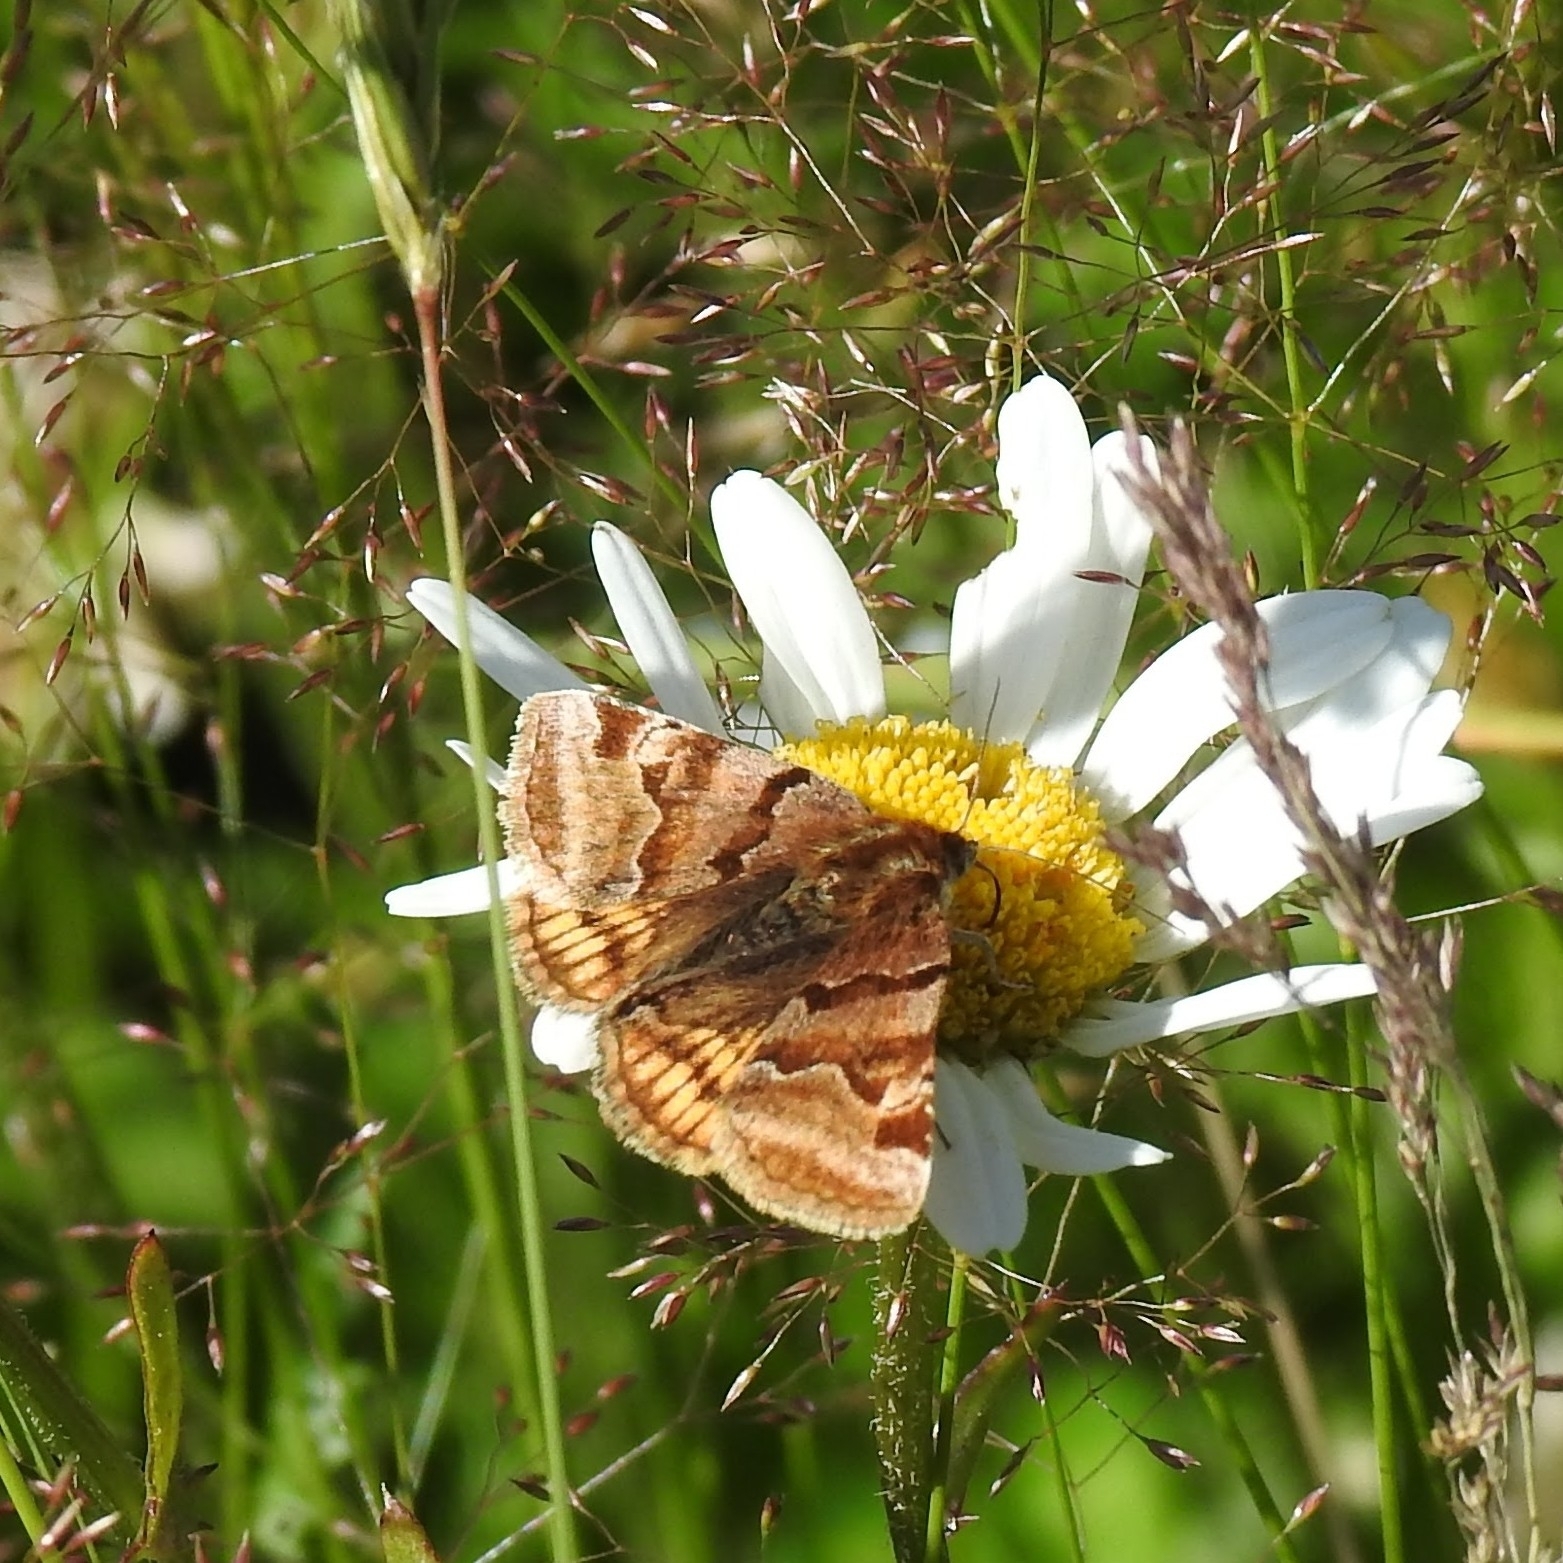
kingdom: Animalia
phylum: Arthropoda
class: Insecta
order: Lepidoptera
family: Erebidae
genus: Euclidia
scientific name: Euclidia glyphica
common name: Burnet companion
